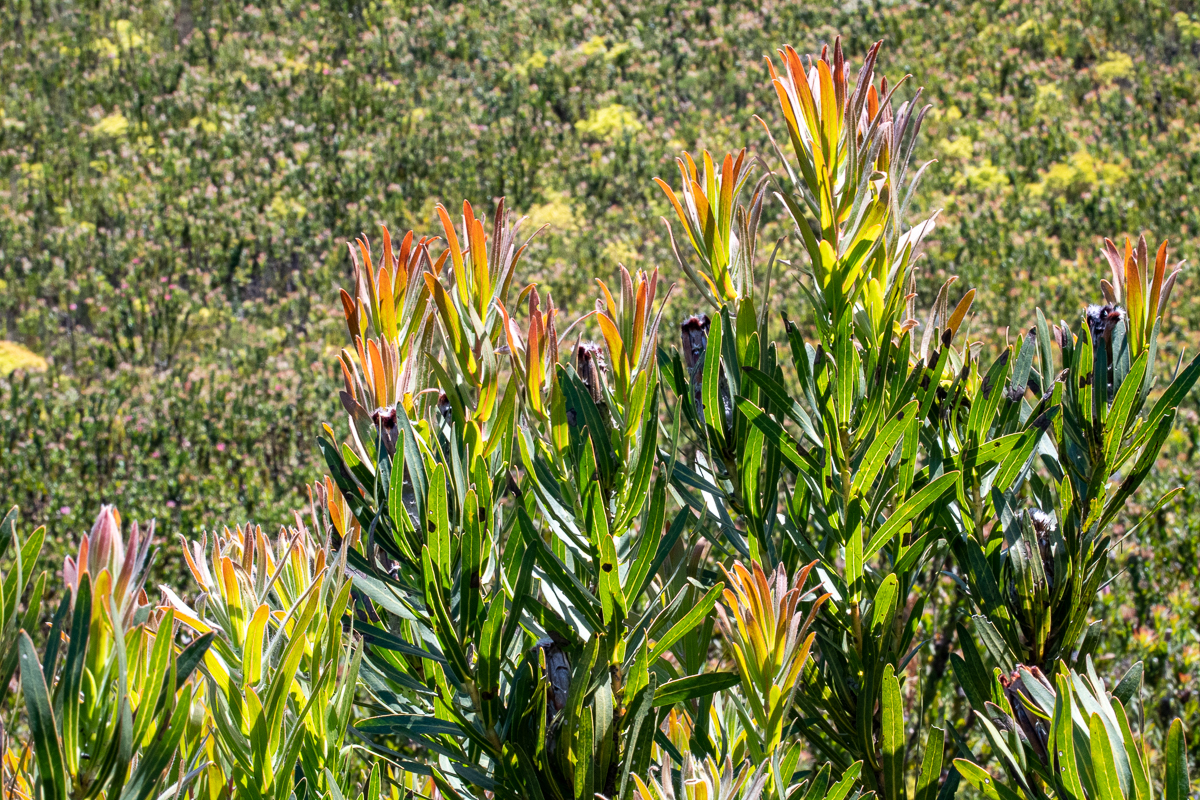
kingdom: Plantae
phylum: Tracheophyta
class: Magnoliopsida
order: Proteales
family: Proteaceae
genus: Protea
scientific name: Protea lepidocarpodendron
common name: Black-bearded protea
